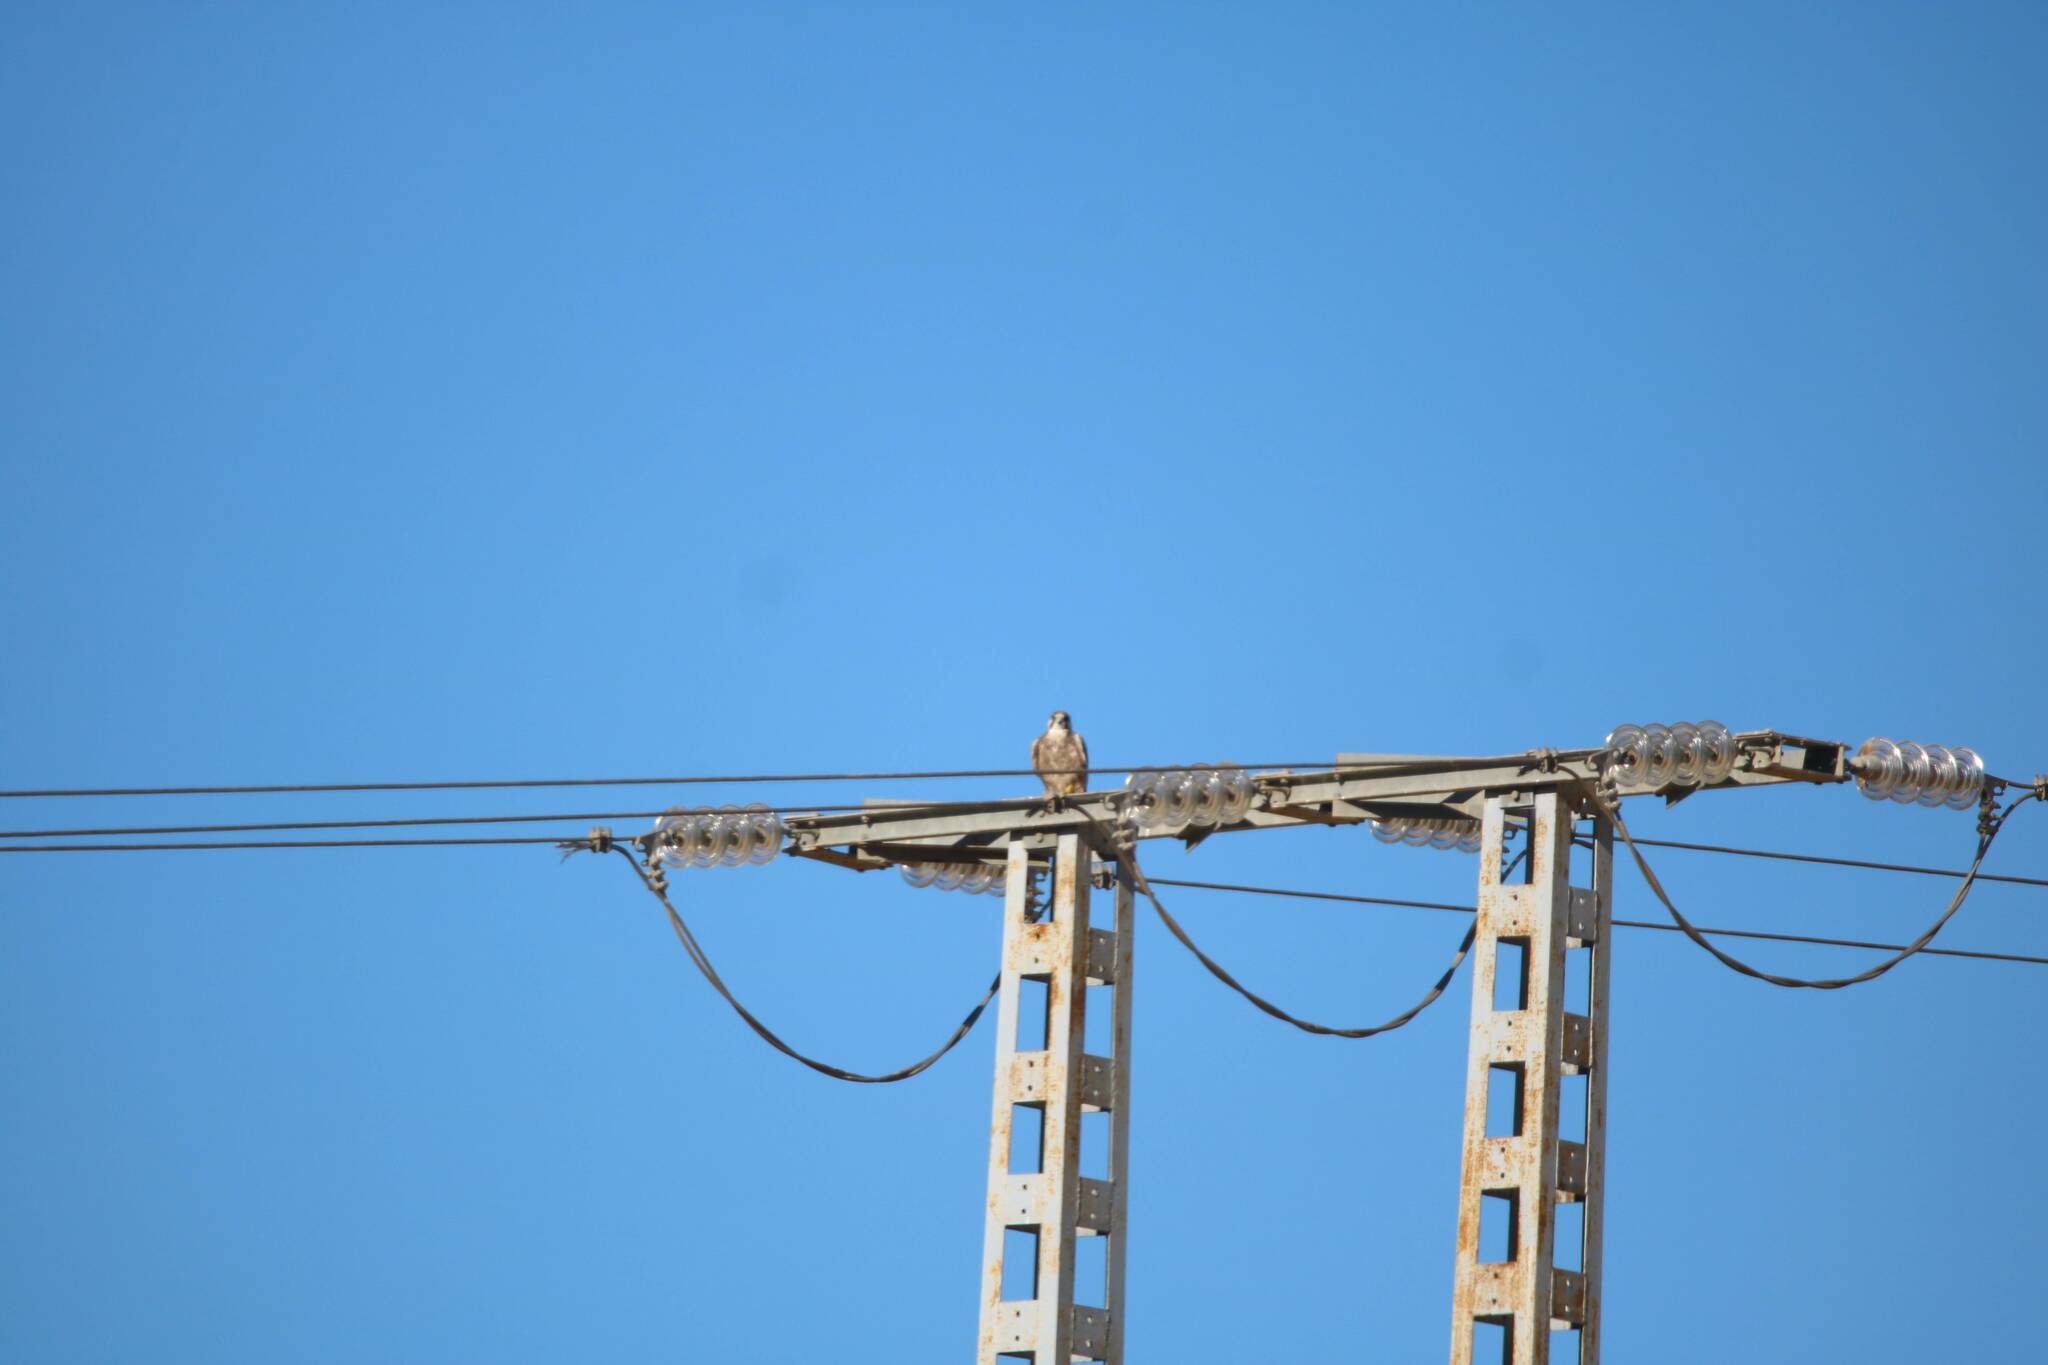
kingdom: Animalia
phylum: Chordata
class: Aves
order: Falconiformes
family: Falconidae
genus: Falco
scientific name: Falco biarmicus
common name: Lanner falcon
